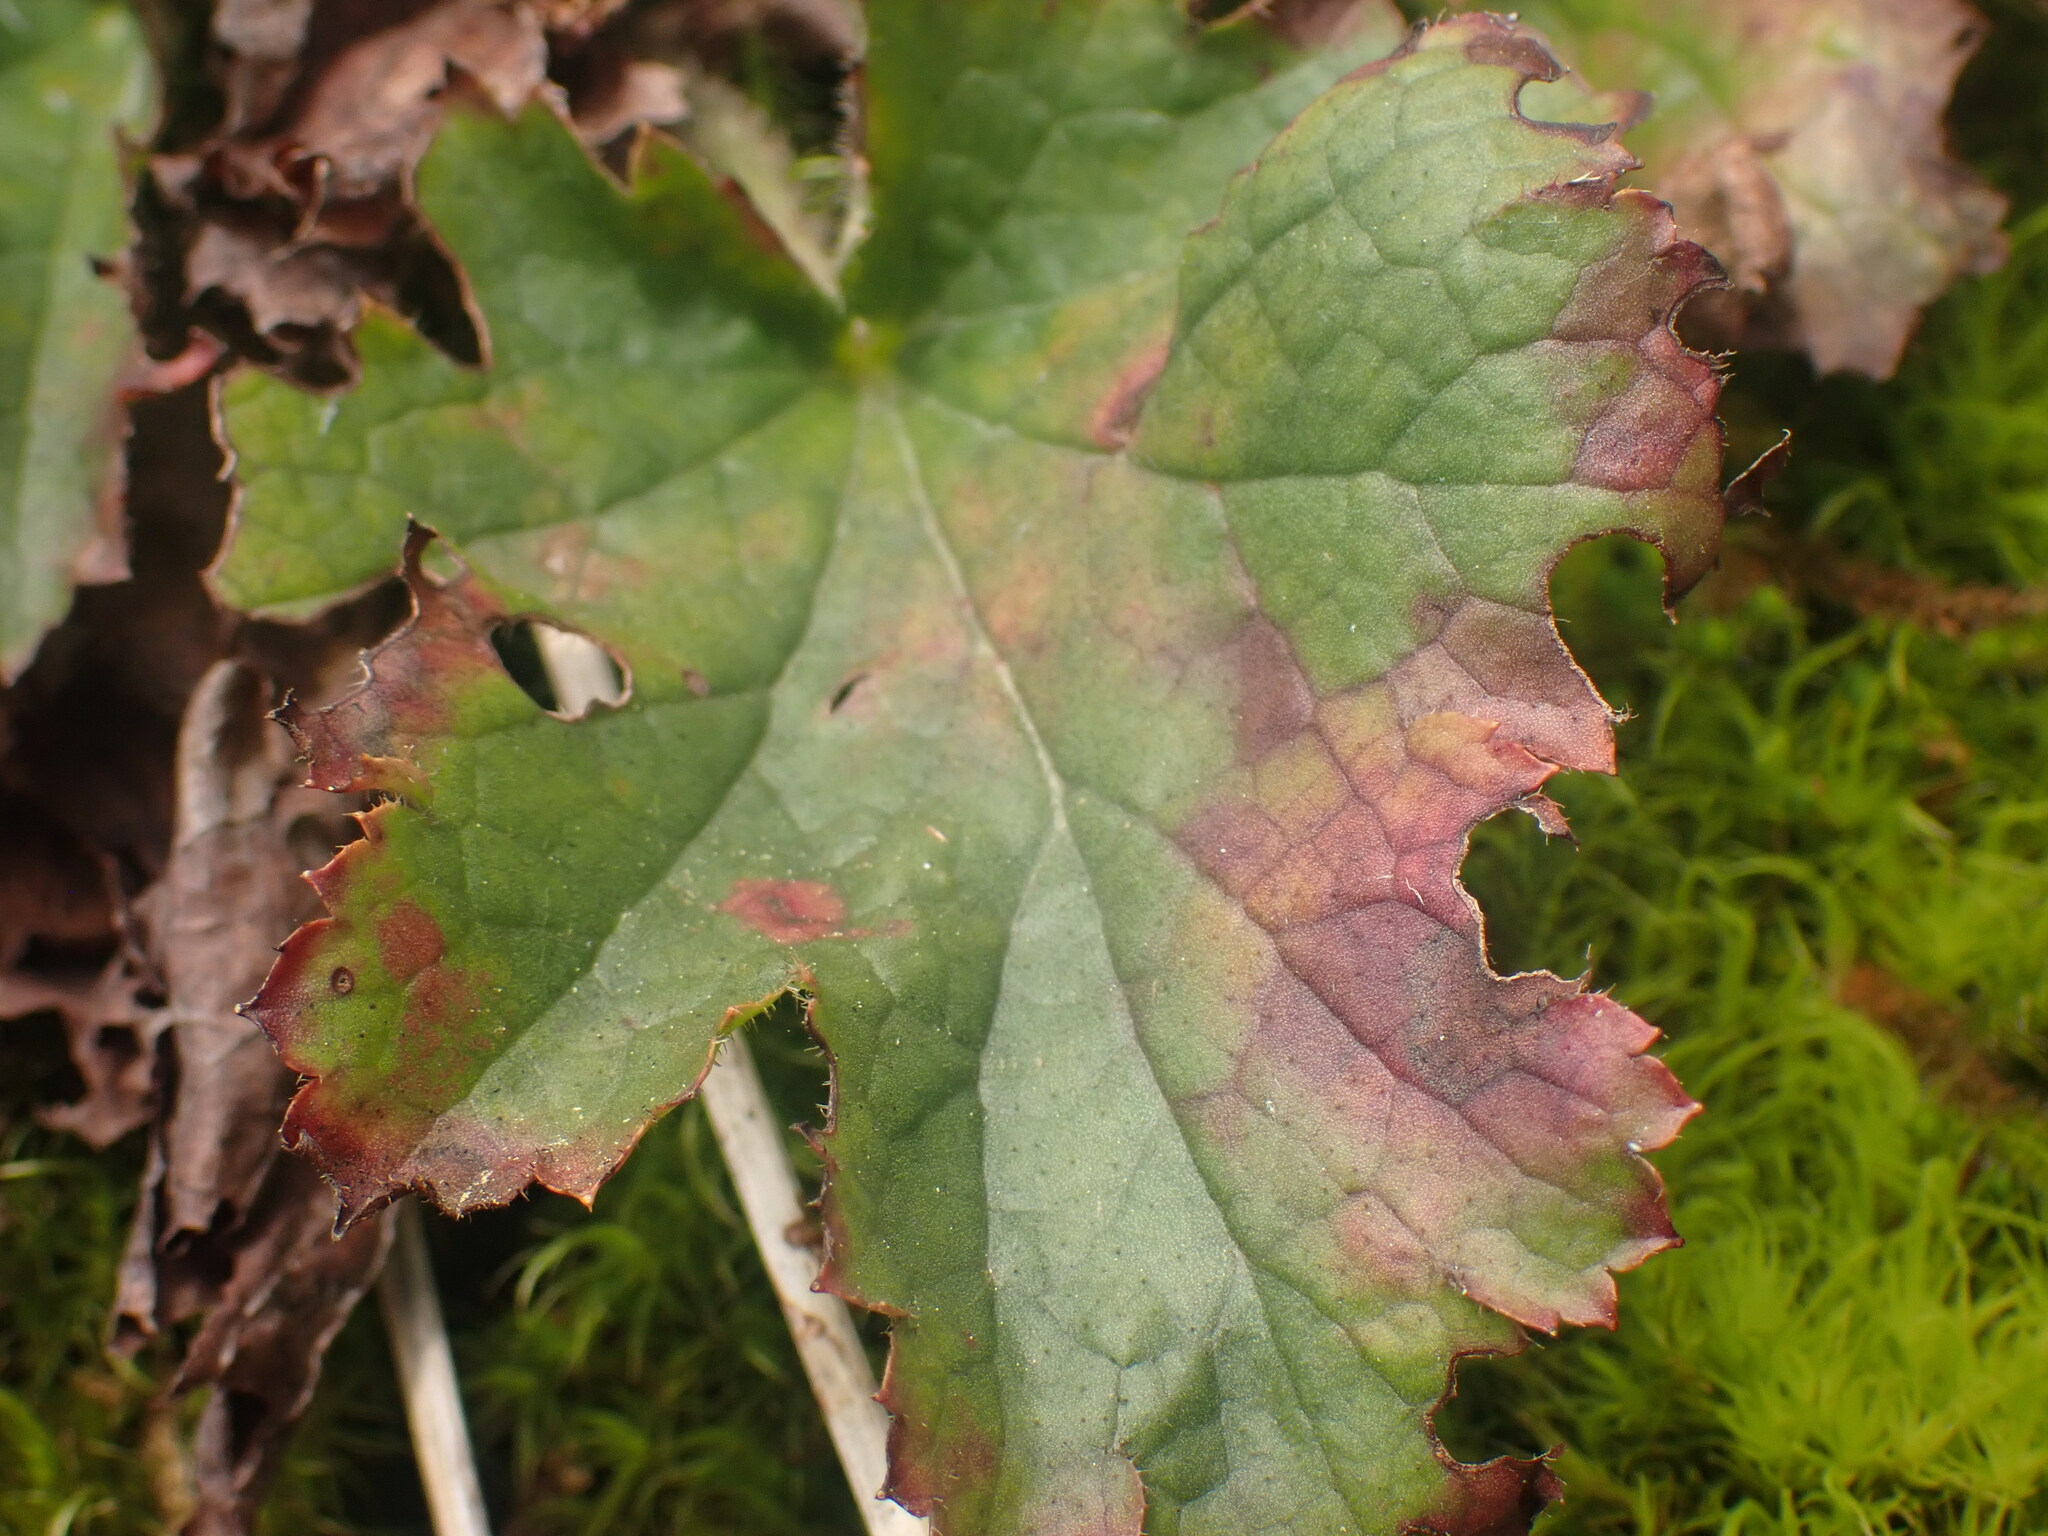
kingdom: Plantae
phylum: Tracheophyta
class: Magnoliopsida
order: Saxifragales
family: Saxifragaceae
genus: Heuchera
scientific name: Heuchera micrantha
